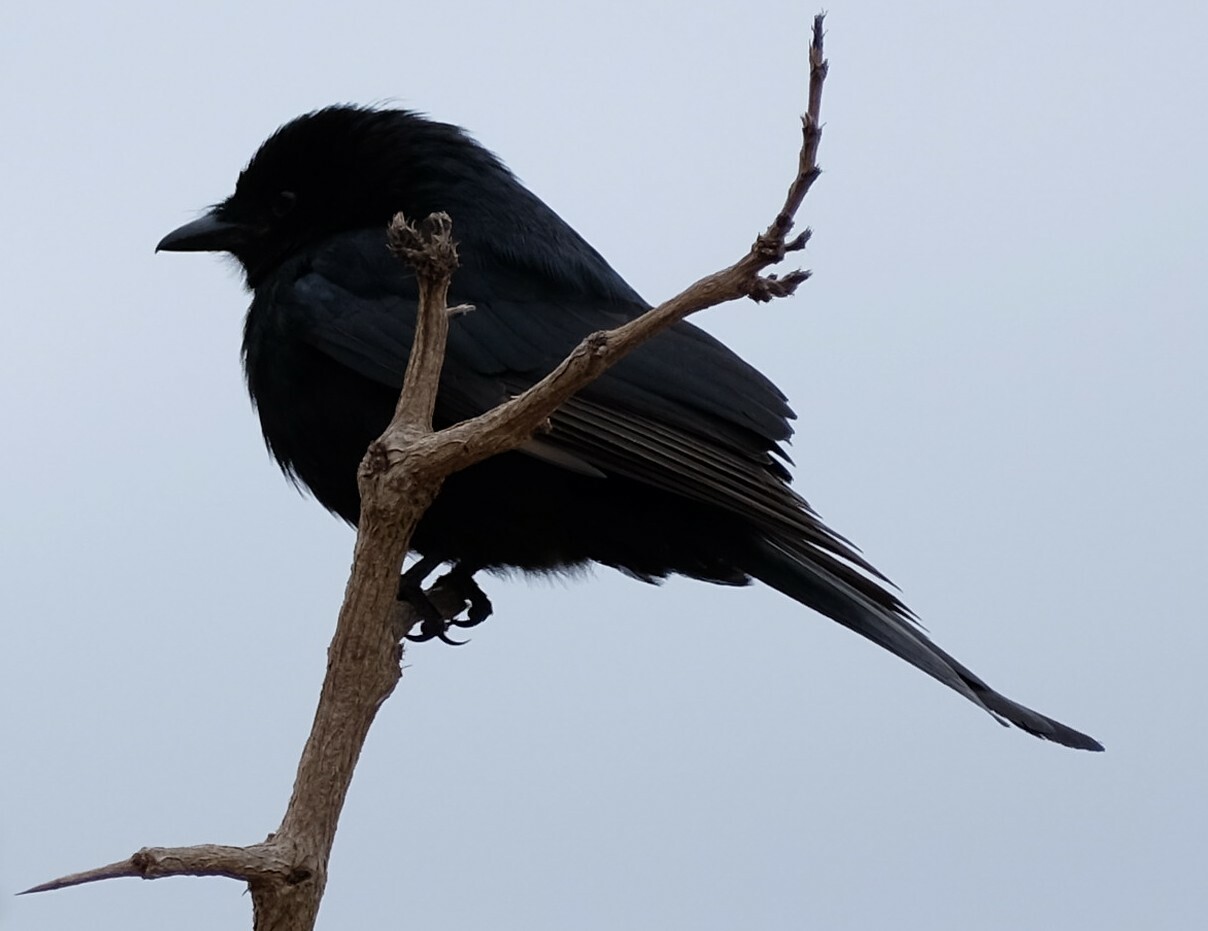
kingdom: Animalia
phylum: Chordata
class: Aves
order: Passeriformes
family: Dicruridae
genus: Dicrurus
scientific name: Dicrurus adsimilis
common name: Fork-tailed drongo
